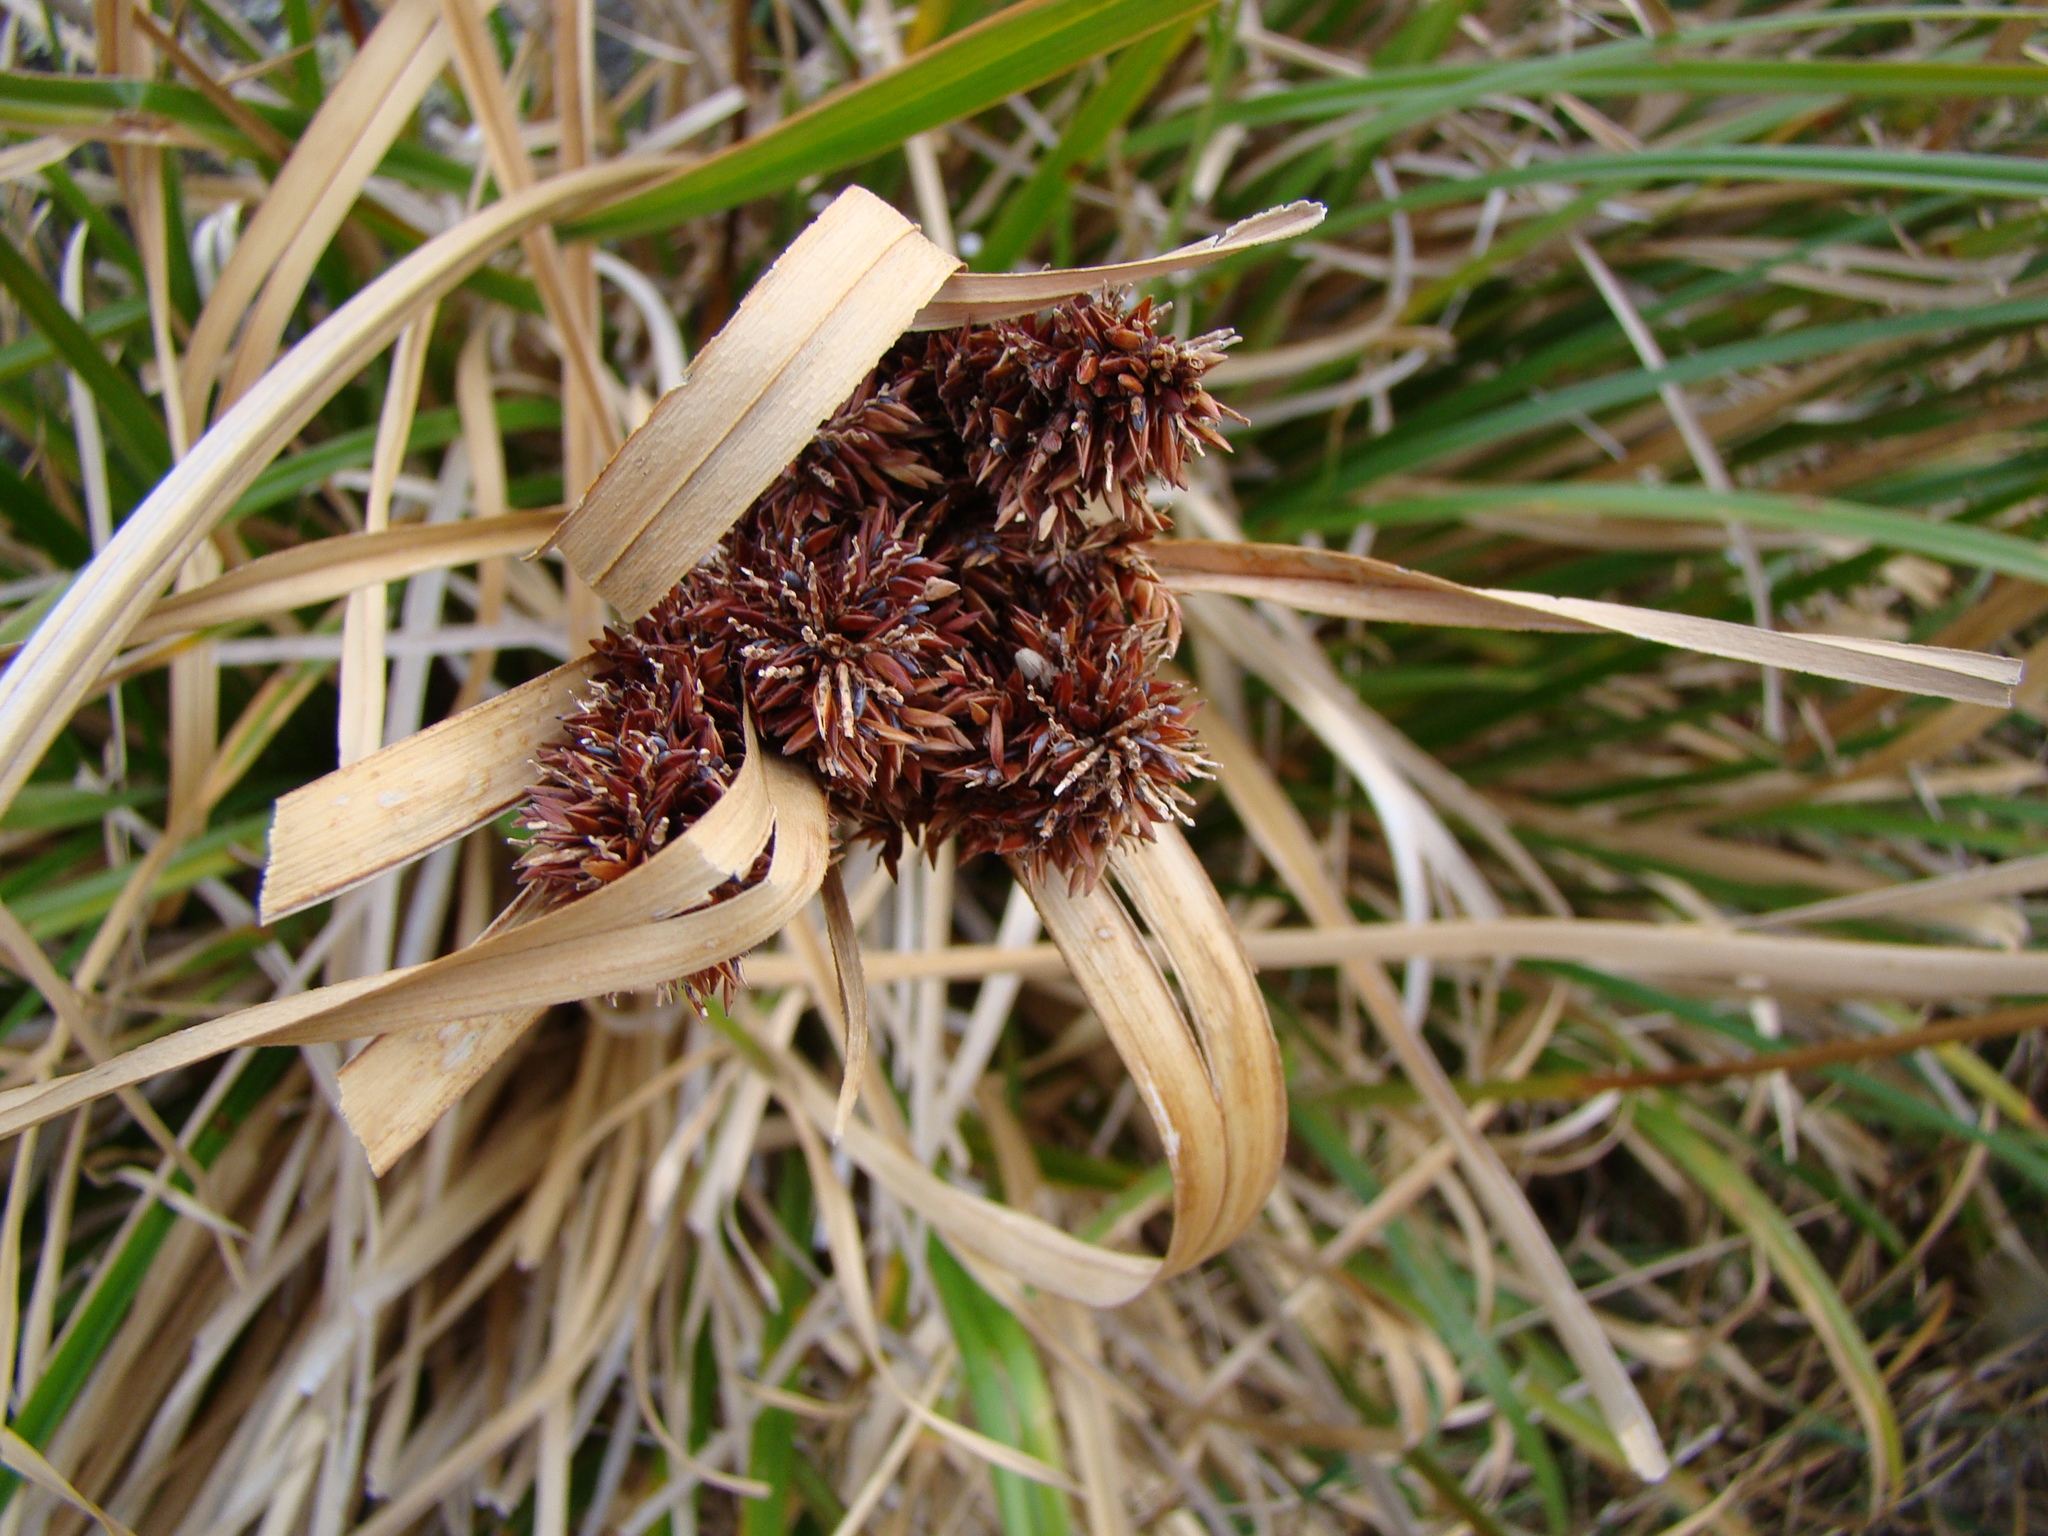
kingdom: Plantae
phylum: Tracheophyta
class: Liliopsida
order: Poales
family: Cyperaceae
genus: Cyperus
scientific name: Cyperus ustulatus
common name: Giant umbrella-sedge
